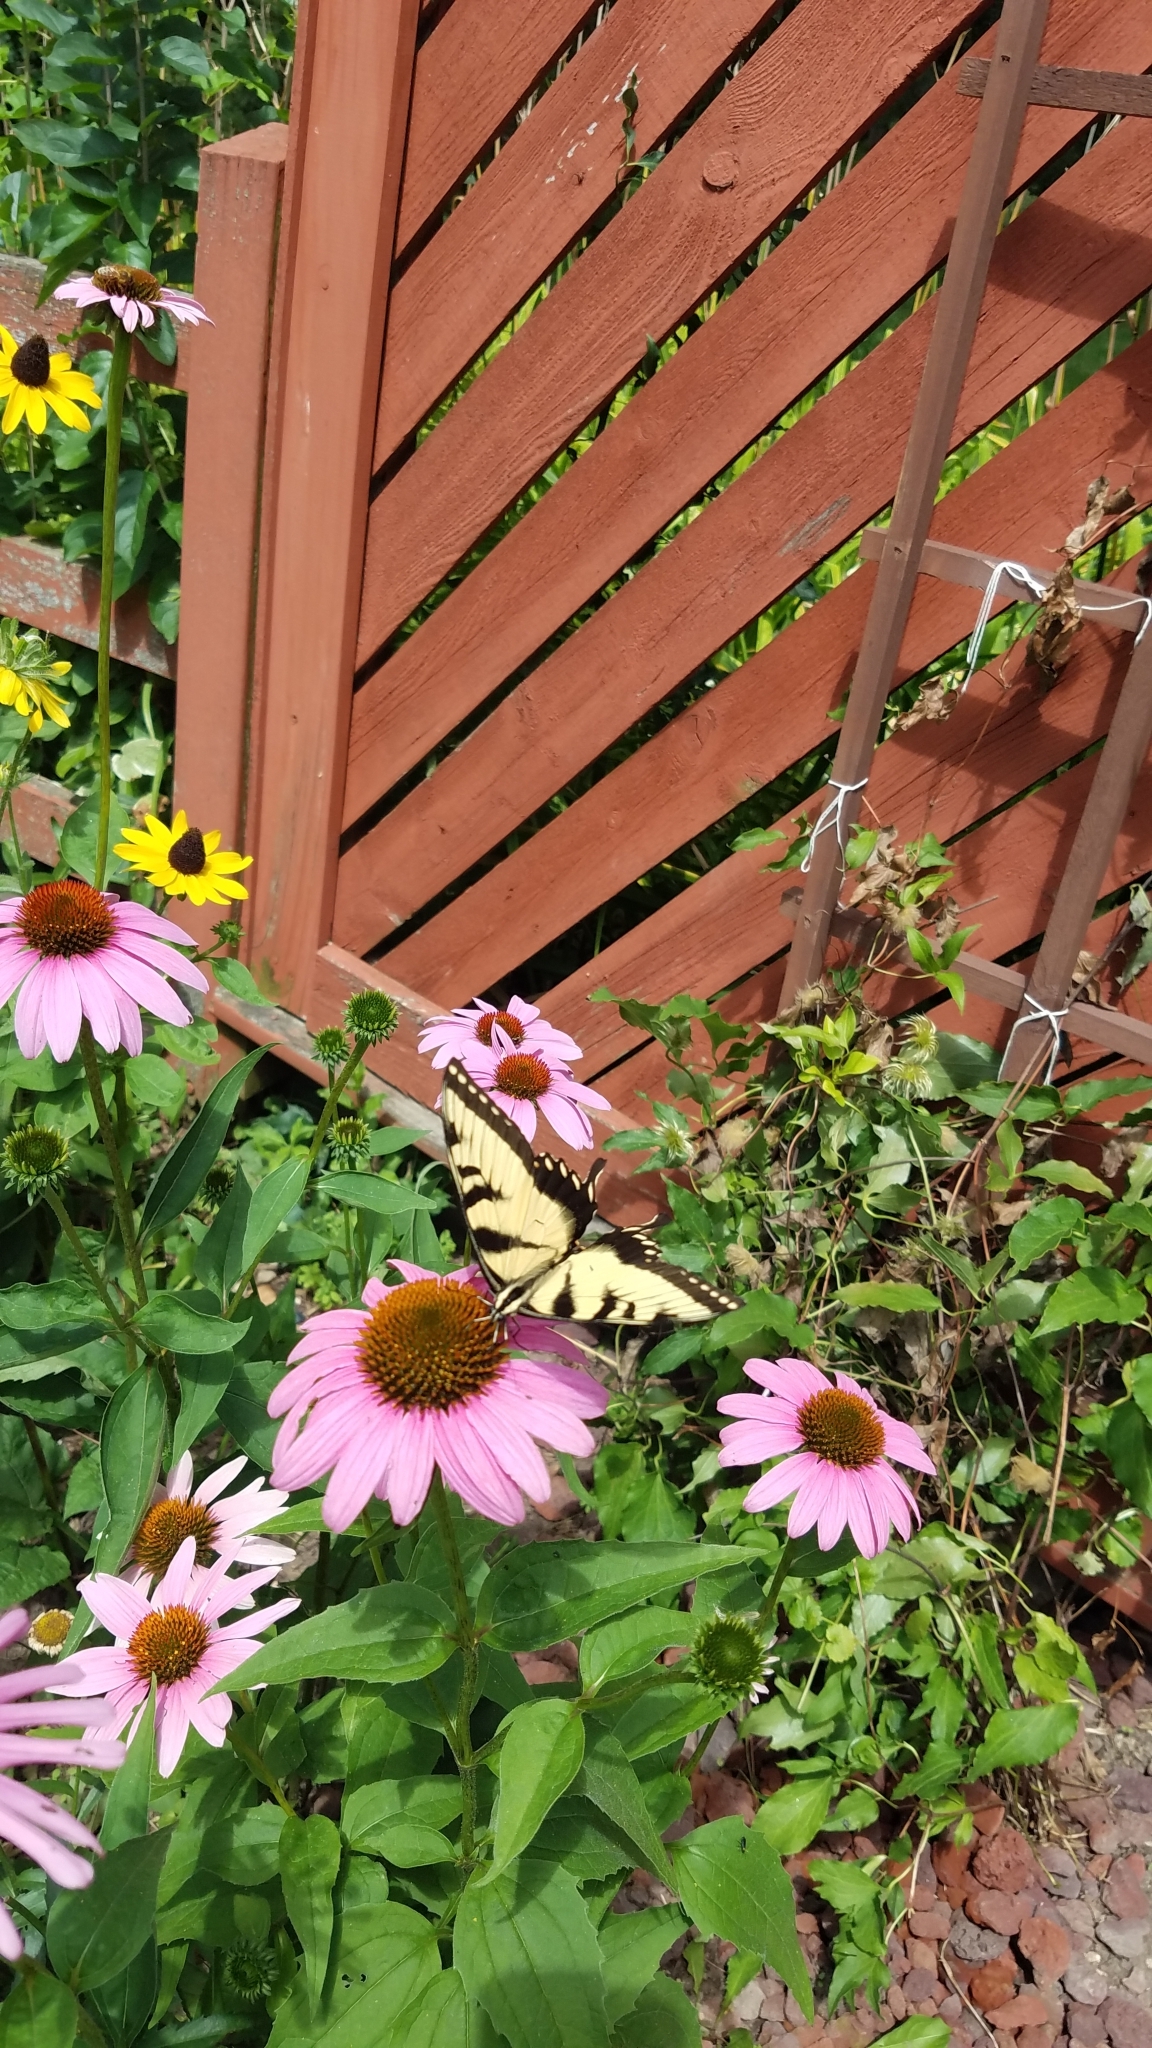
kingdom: Animalia
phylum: Arthropoda
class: Insecta
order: Lepidoptera
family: Papilionidae
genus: Papilio
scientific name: Papilio glaucus
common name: Tiger swallowtail
